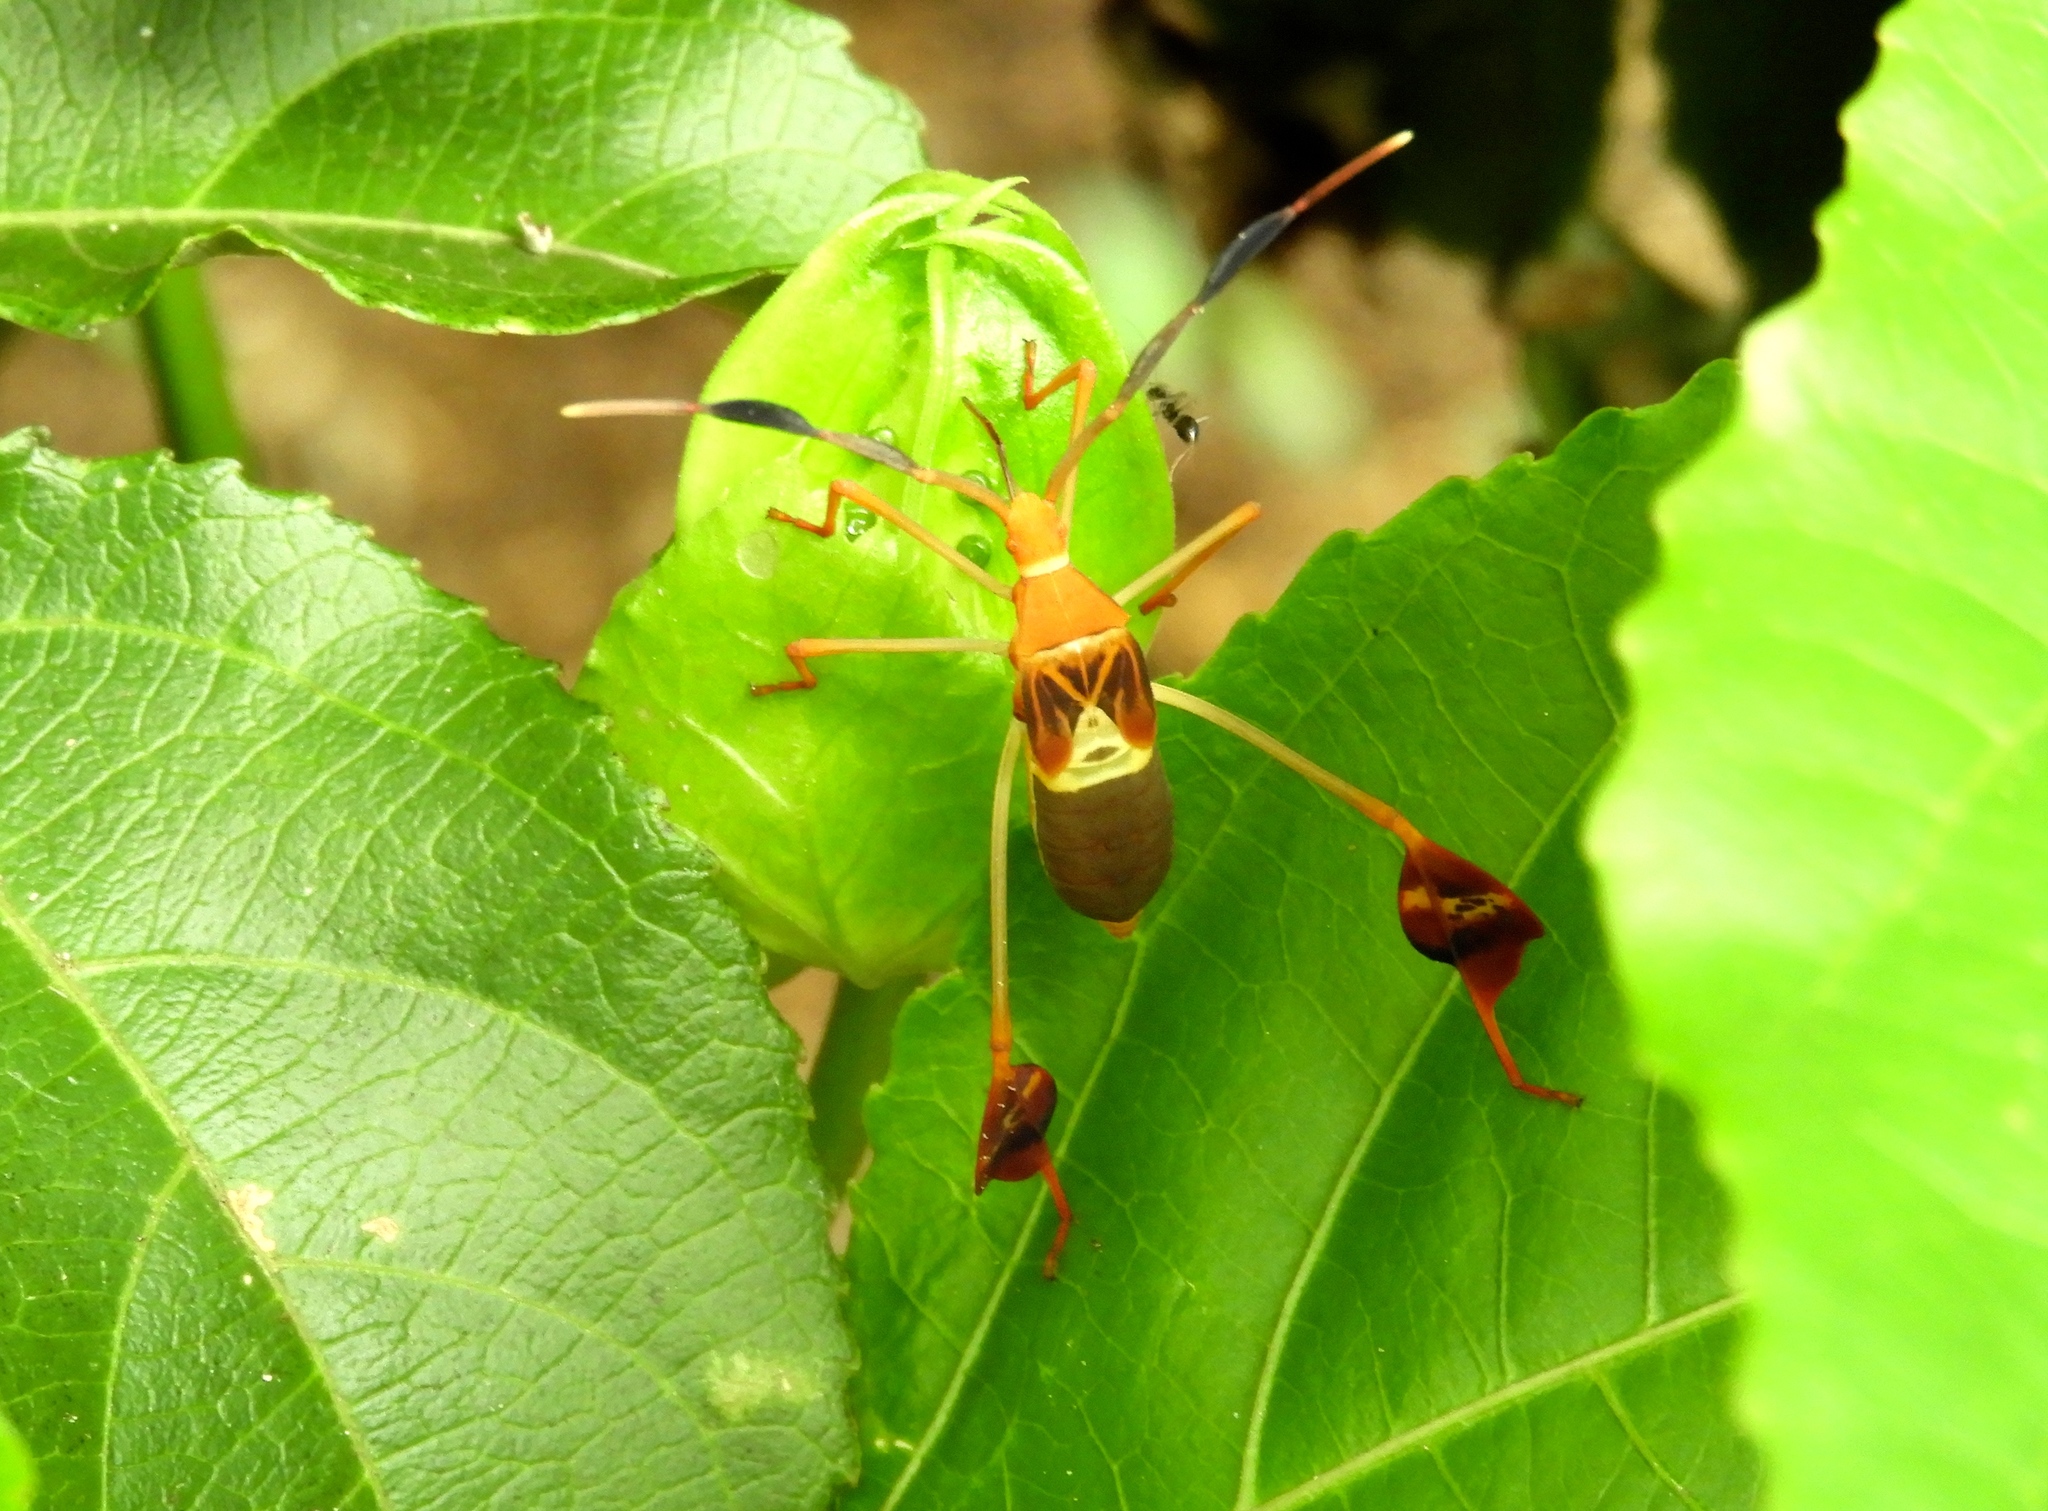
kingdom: Animalia
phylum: Arthropoda
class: Insecta
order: Hemiptera
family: Coreidae
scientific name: Coreidae
